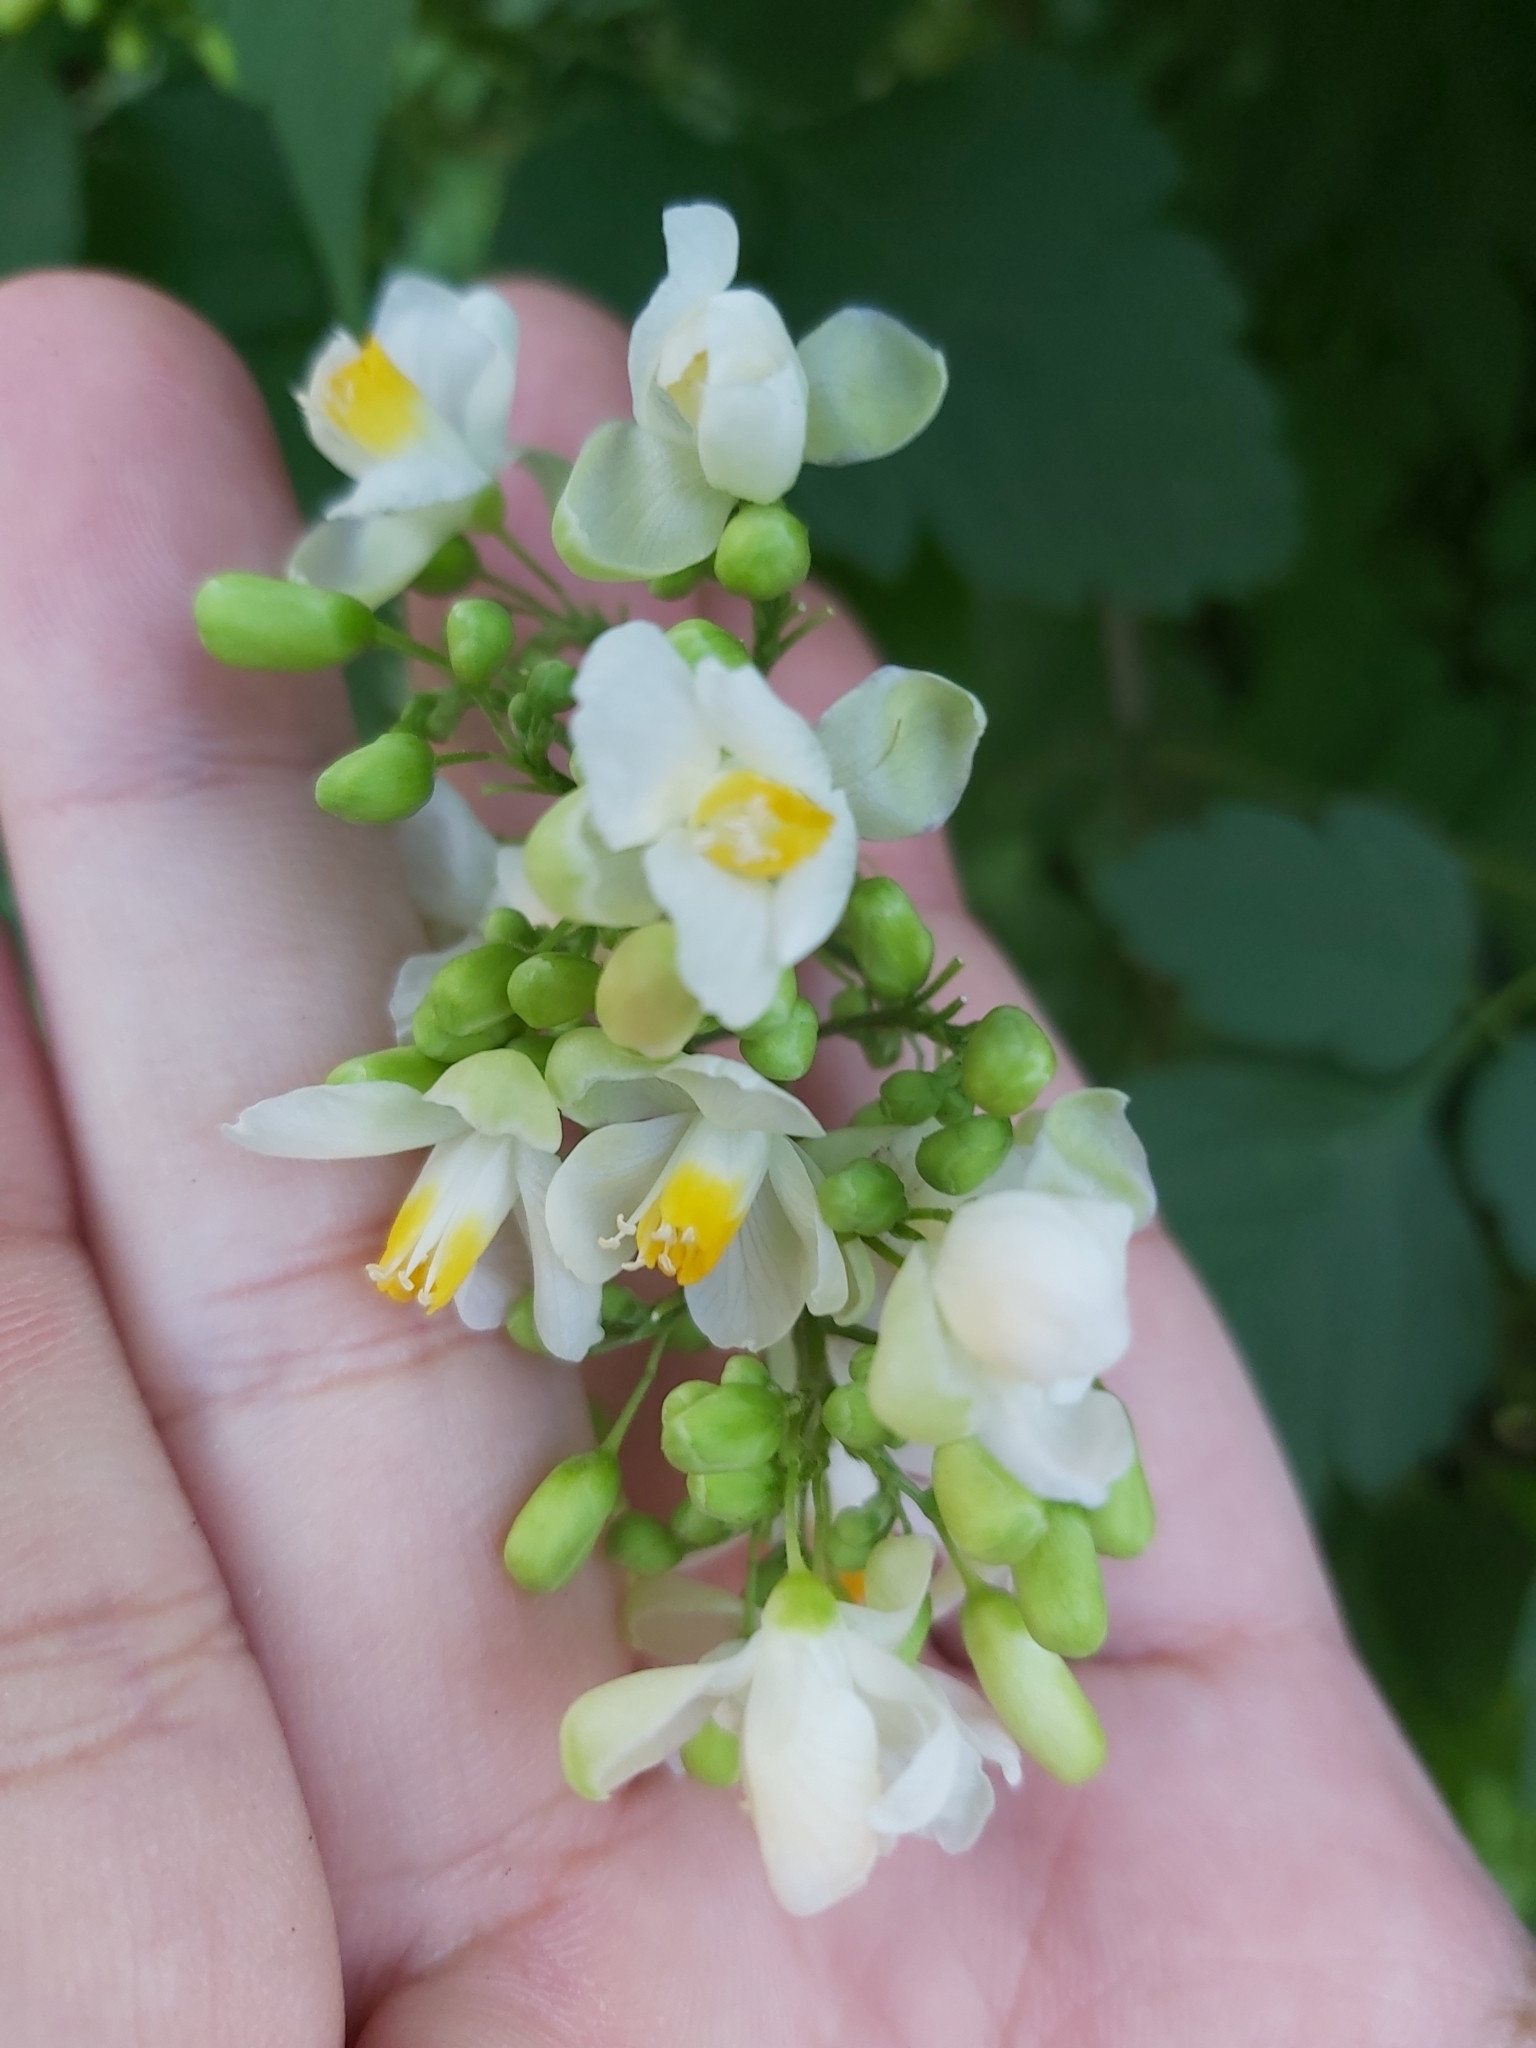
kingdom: Plantae
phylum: Tracheophyta
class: Magnoliopsida
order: Sapindales
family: Sapindaceae
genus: Cardiospermum
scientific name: Cardiospermum grandiflorum
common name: Balloon vine
